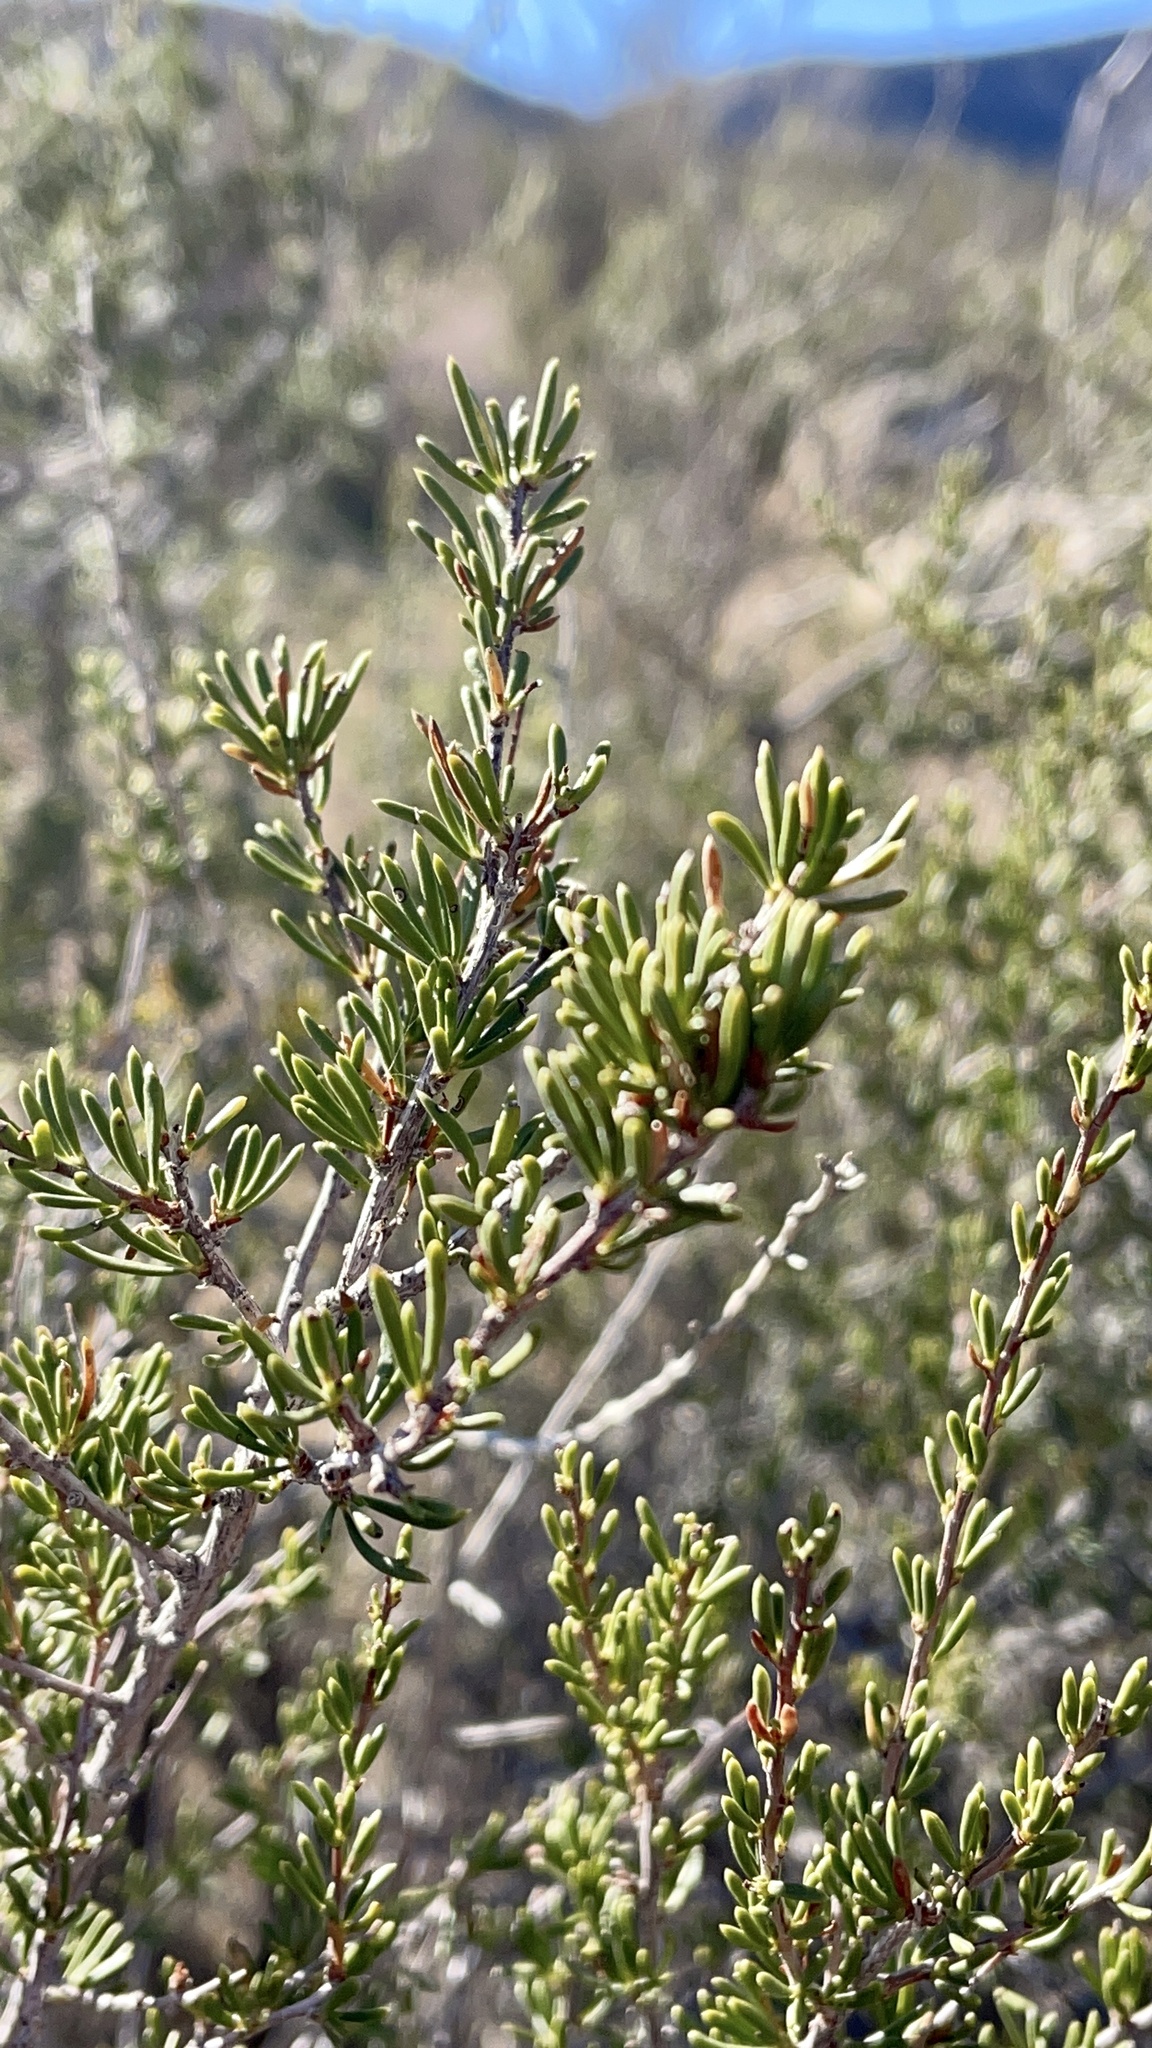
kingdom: Plantae
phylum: Tracheophyta
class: Magnoliopsida
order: Rosales
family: Rosaceae
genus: Adenostoma
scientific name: Adenostoma fasciculatum
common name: Chamise
